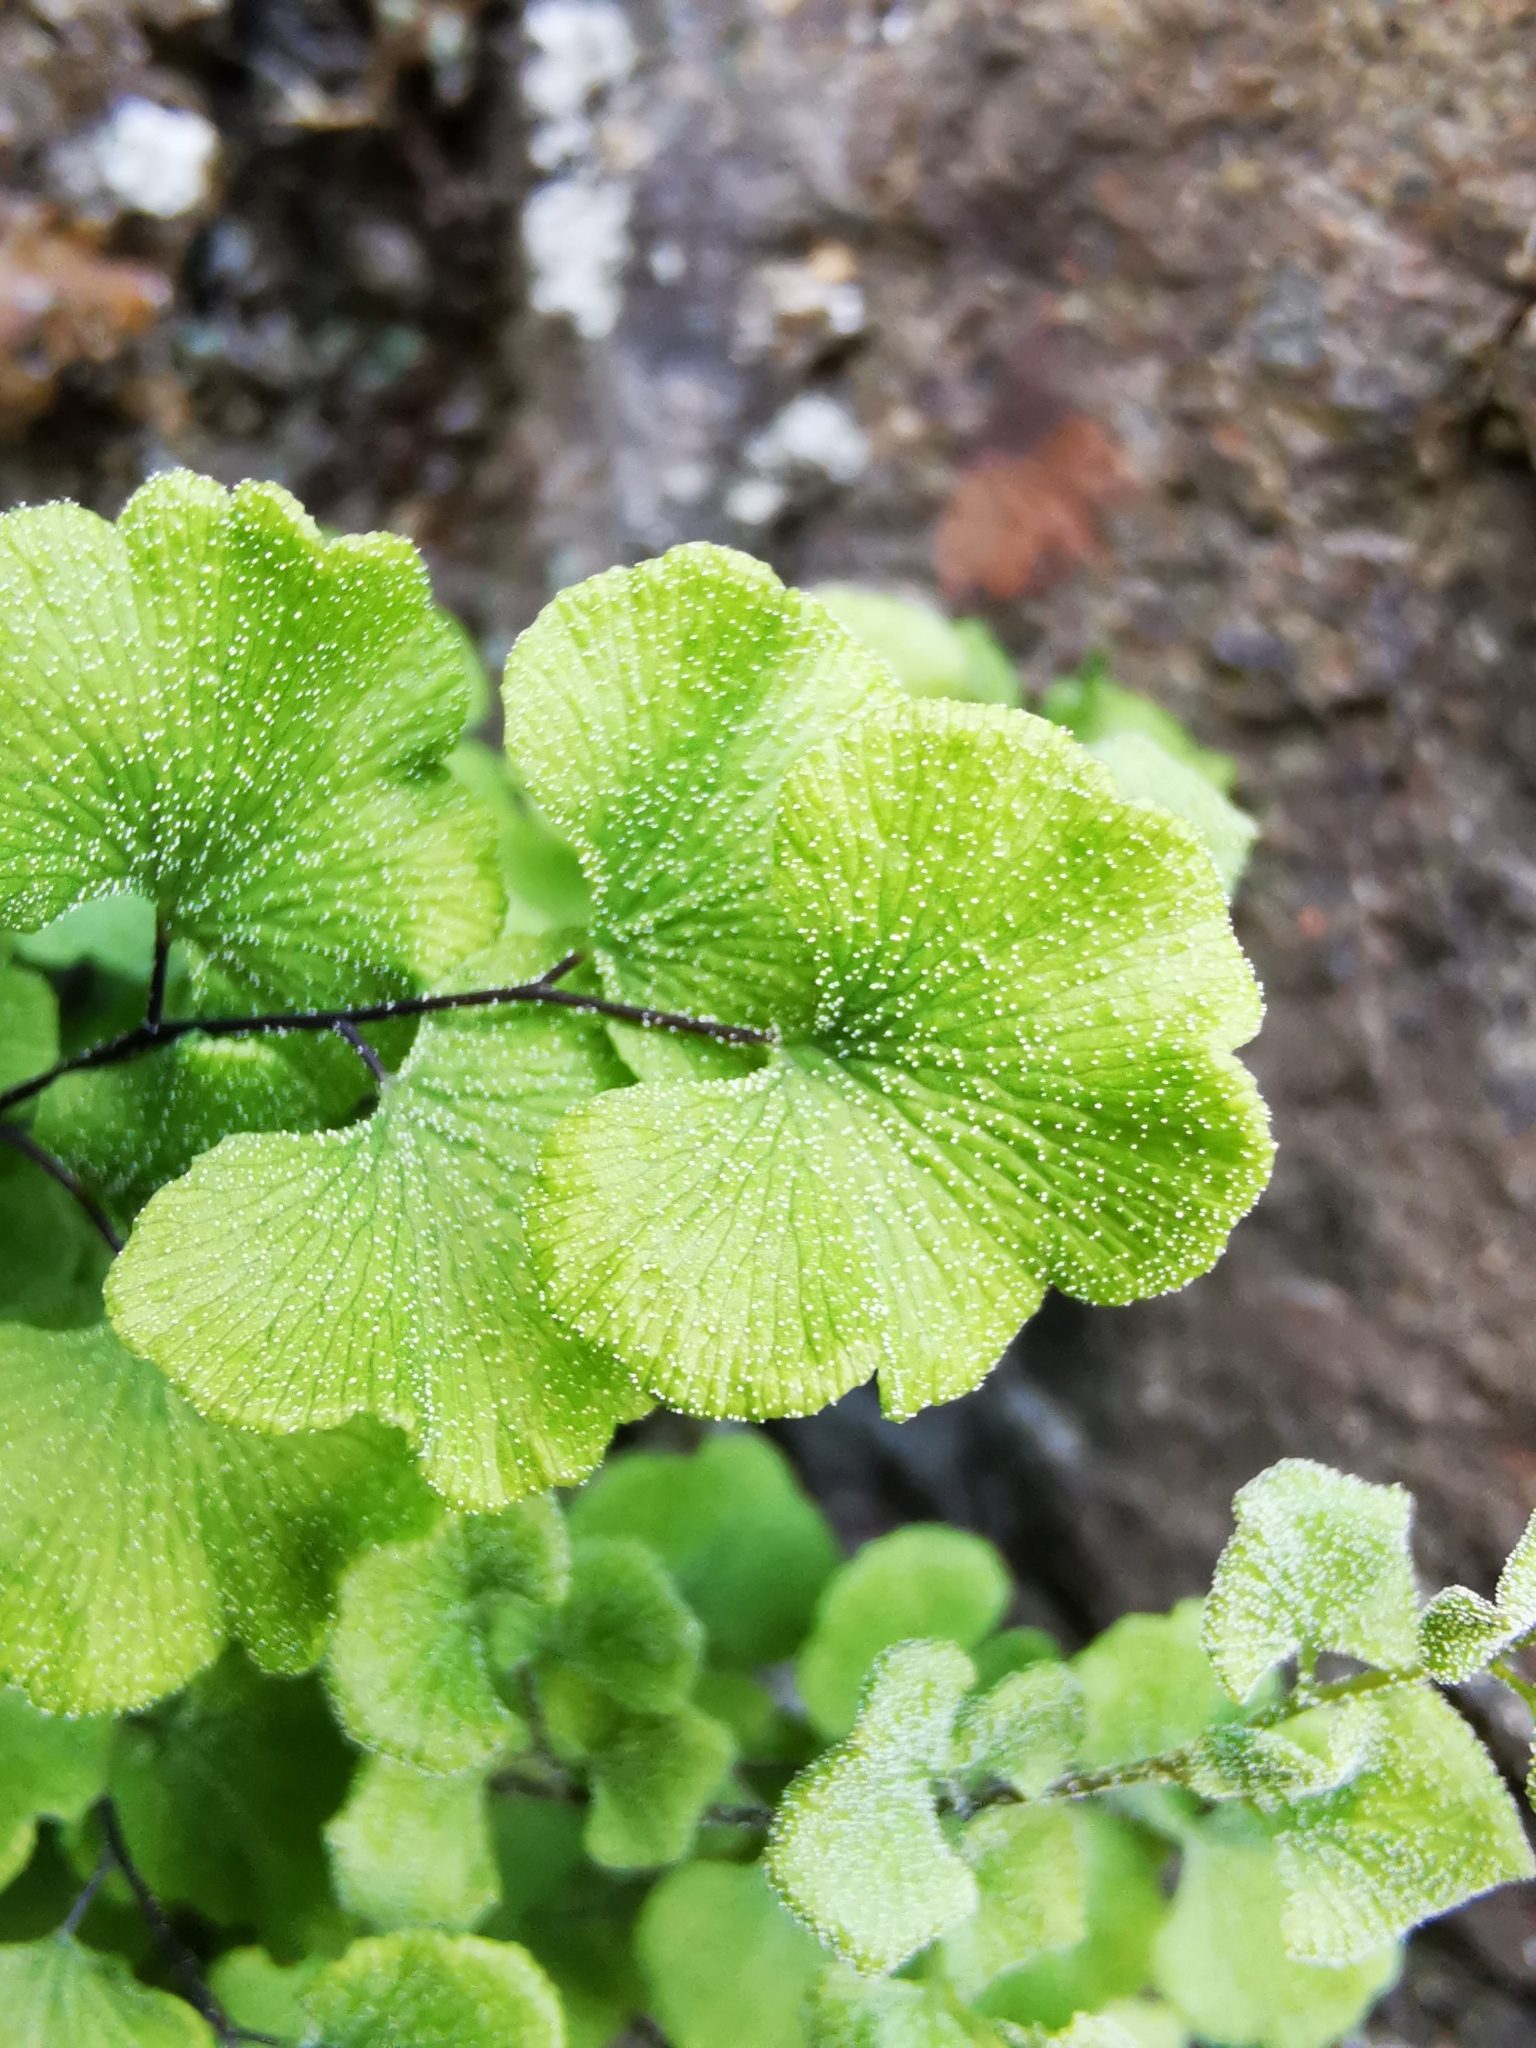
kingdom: Plantae
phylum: Tracheophyta
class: Polypodiopsida
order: Polypodiales
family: Pteridaceae
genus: Adiantum
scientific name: Adiantum chilense
